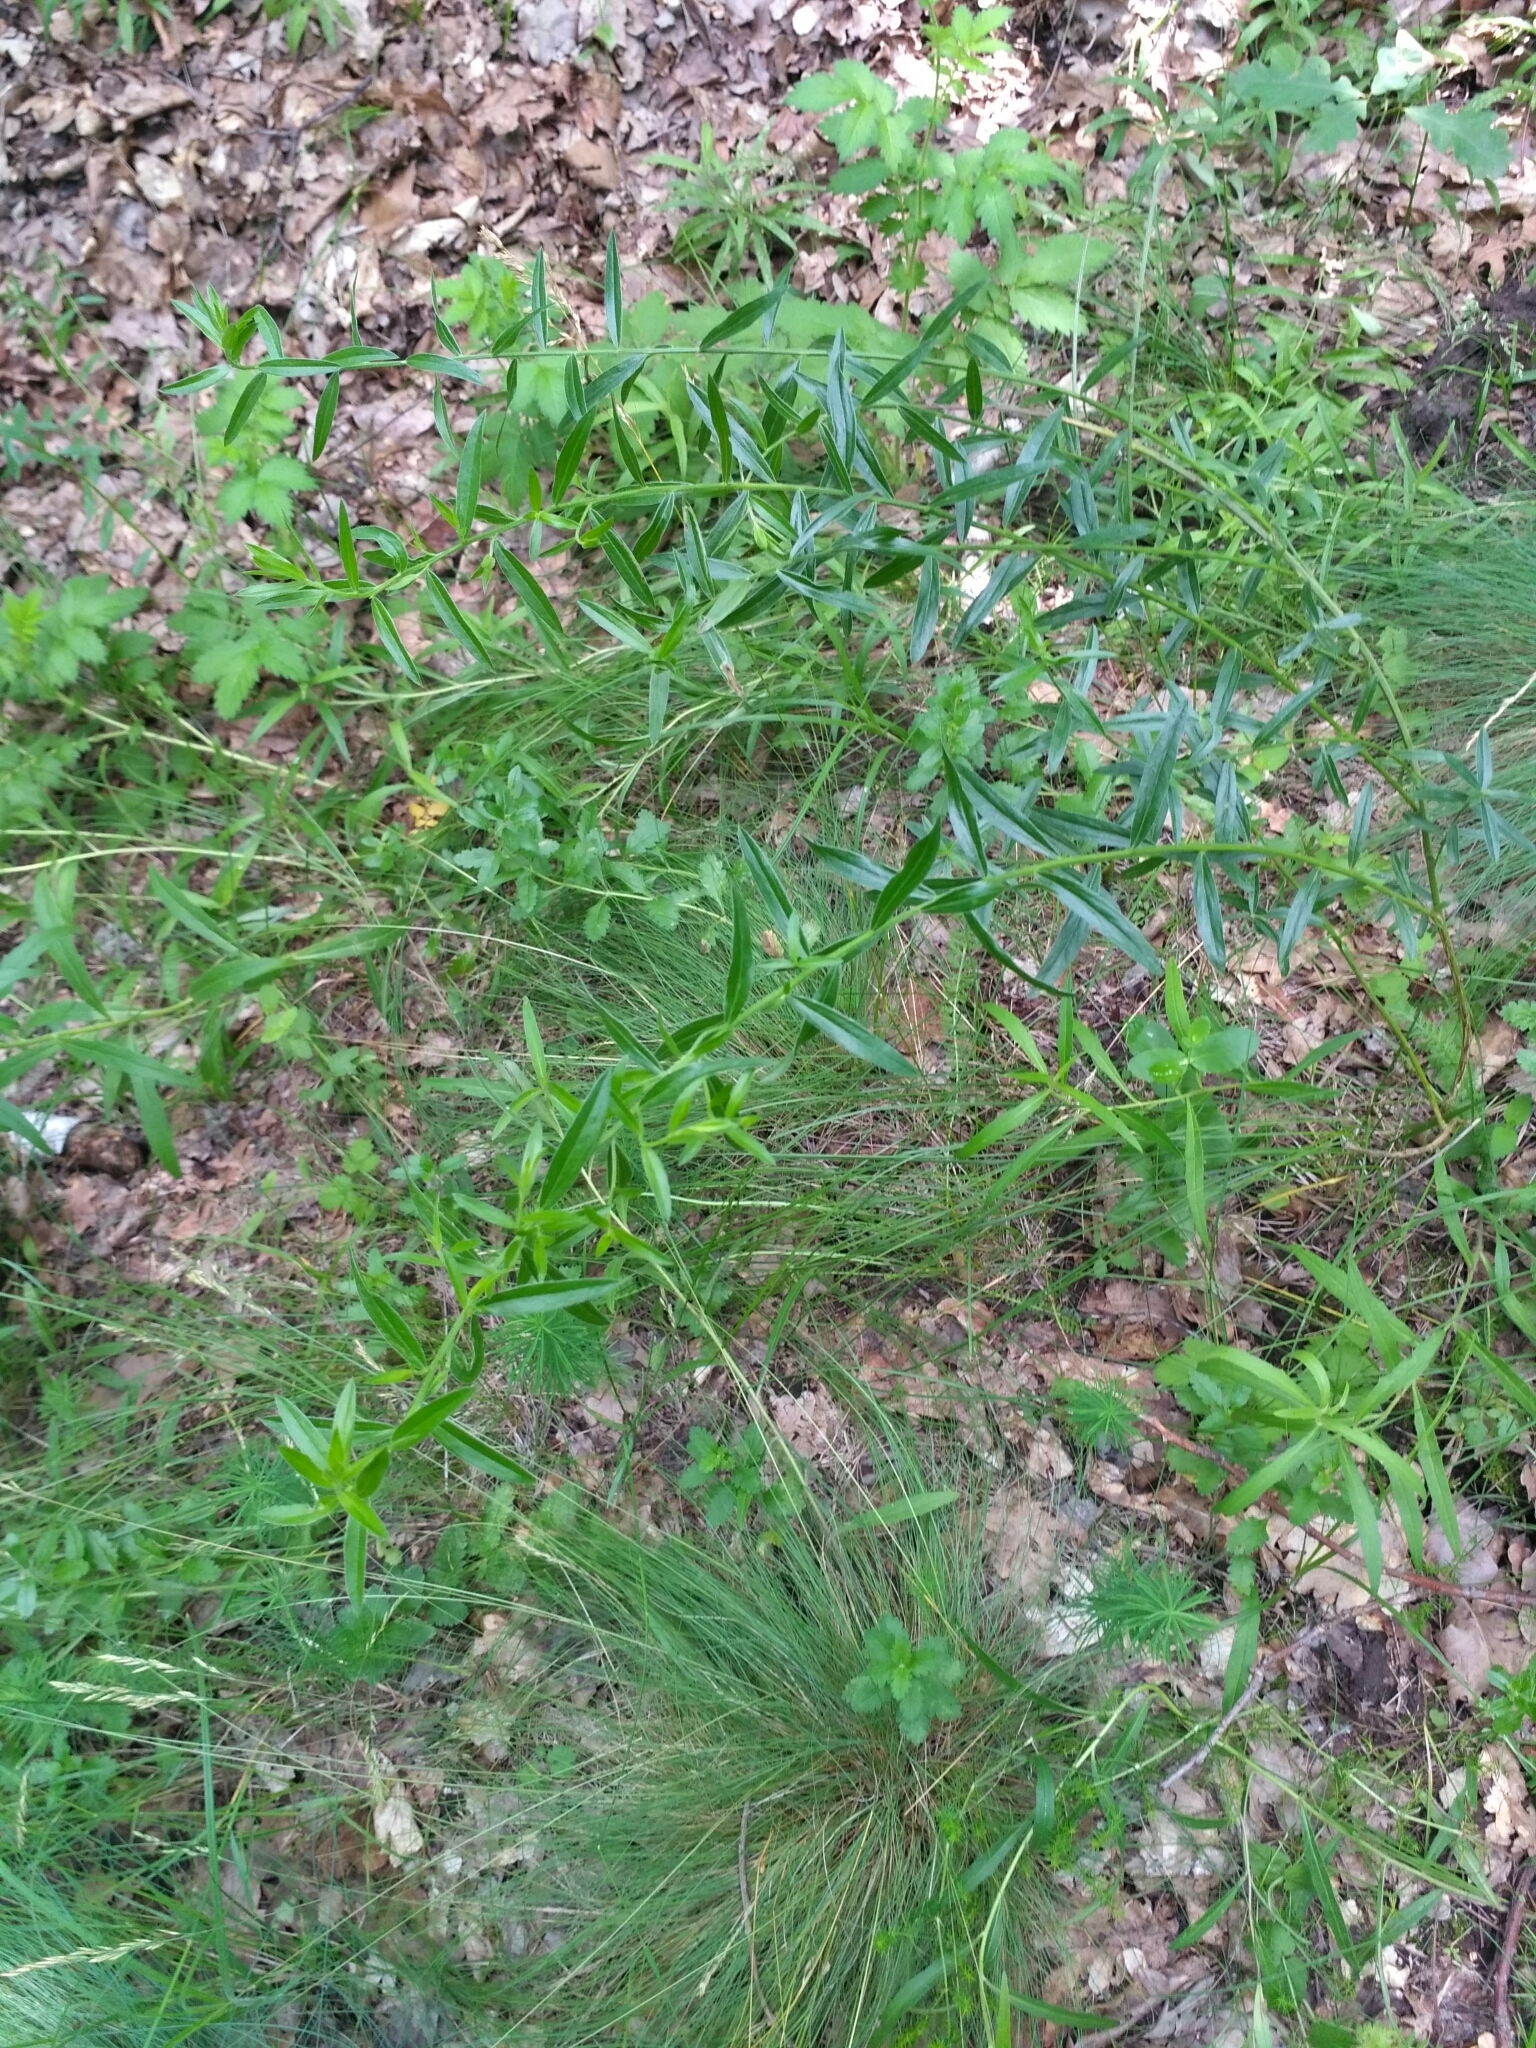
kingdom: Plantae
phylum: Tracheophyta
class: Magnoliopsida
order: Fabales
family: Fabaceae
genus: Genista
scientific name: Genista tinctoria
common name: Dyer's greenweed
